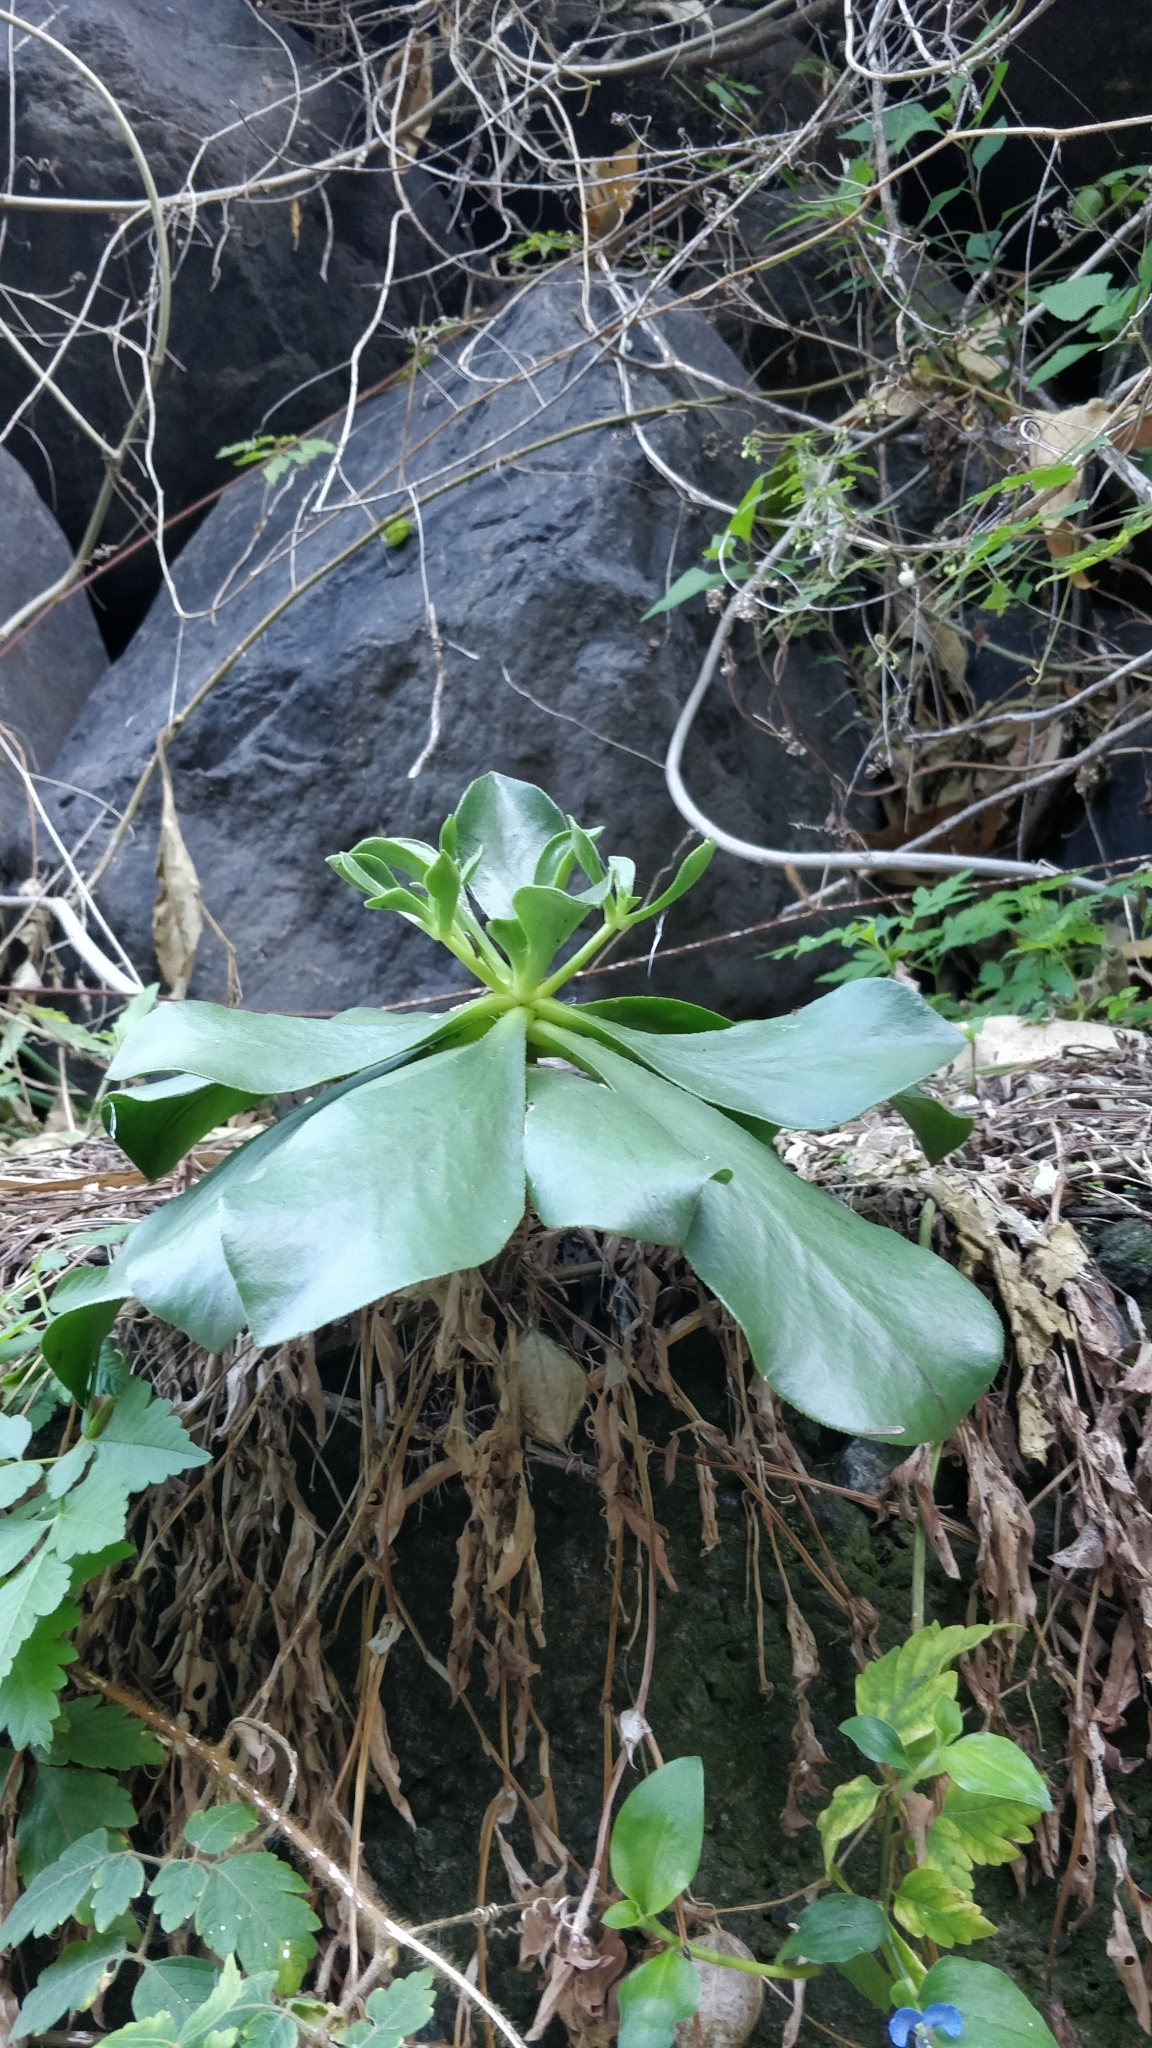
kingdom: Plantae
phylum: Tracheophyta
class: Magnoliopsida
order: Saxifragales
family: Crassulaceae
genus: Aeonium
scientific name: Aeonium glutinosum
